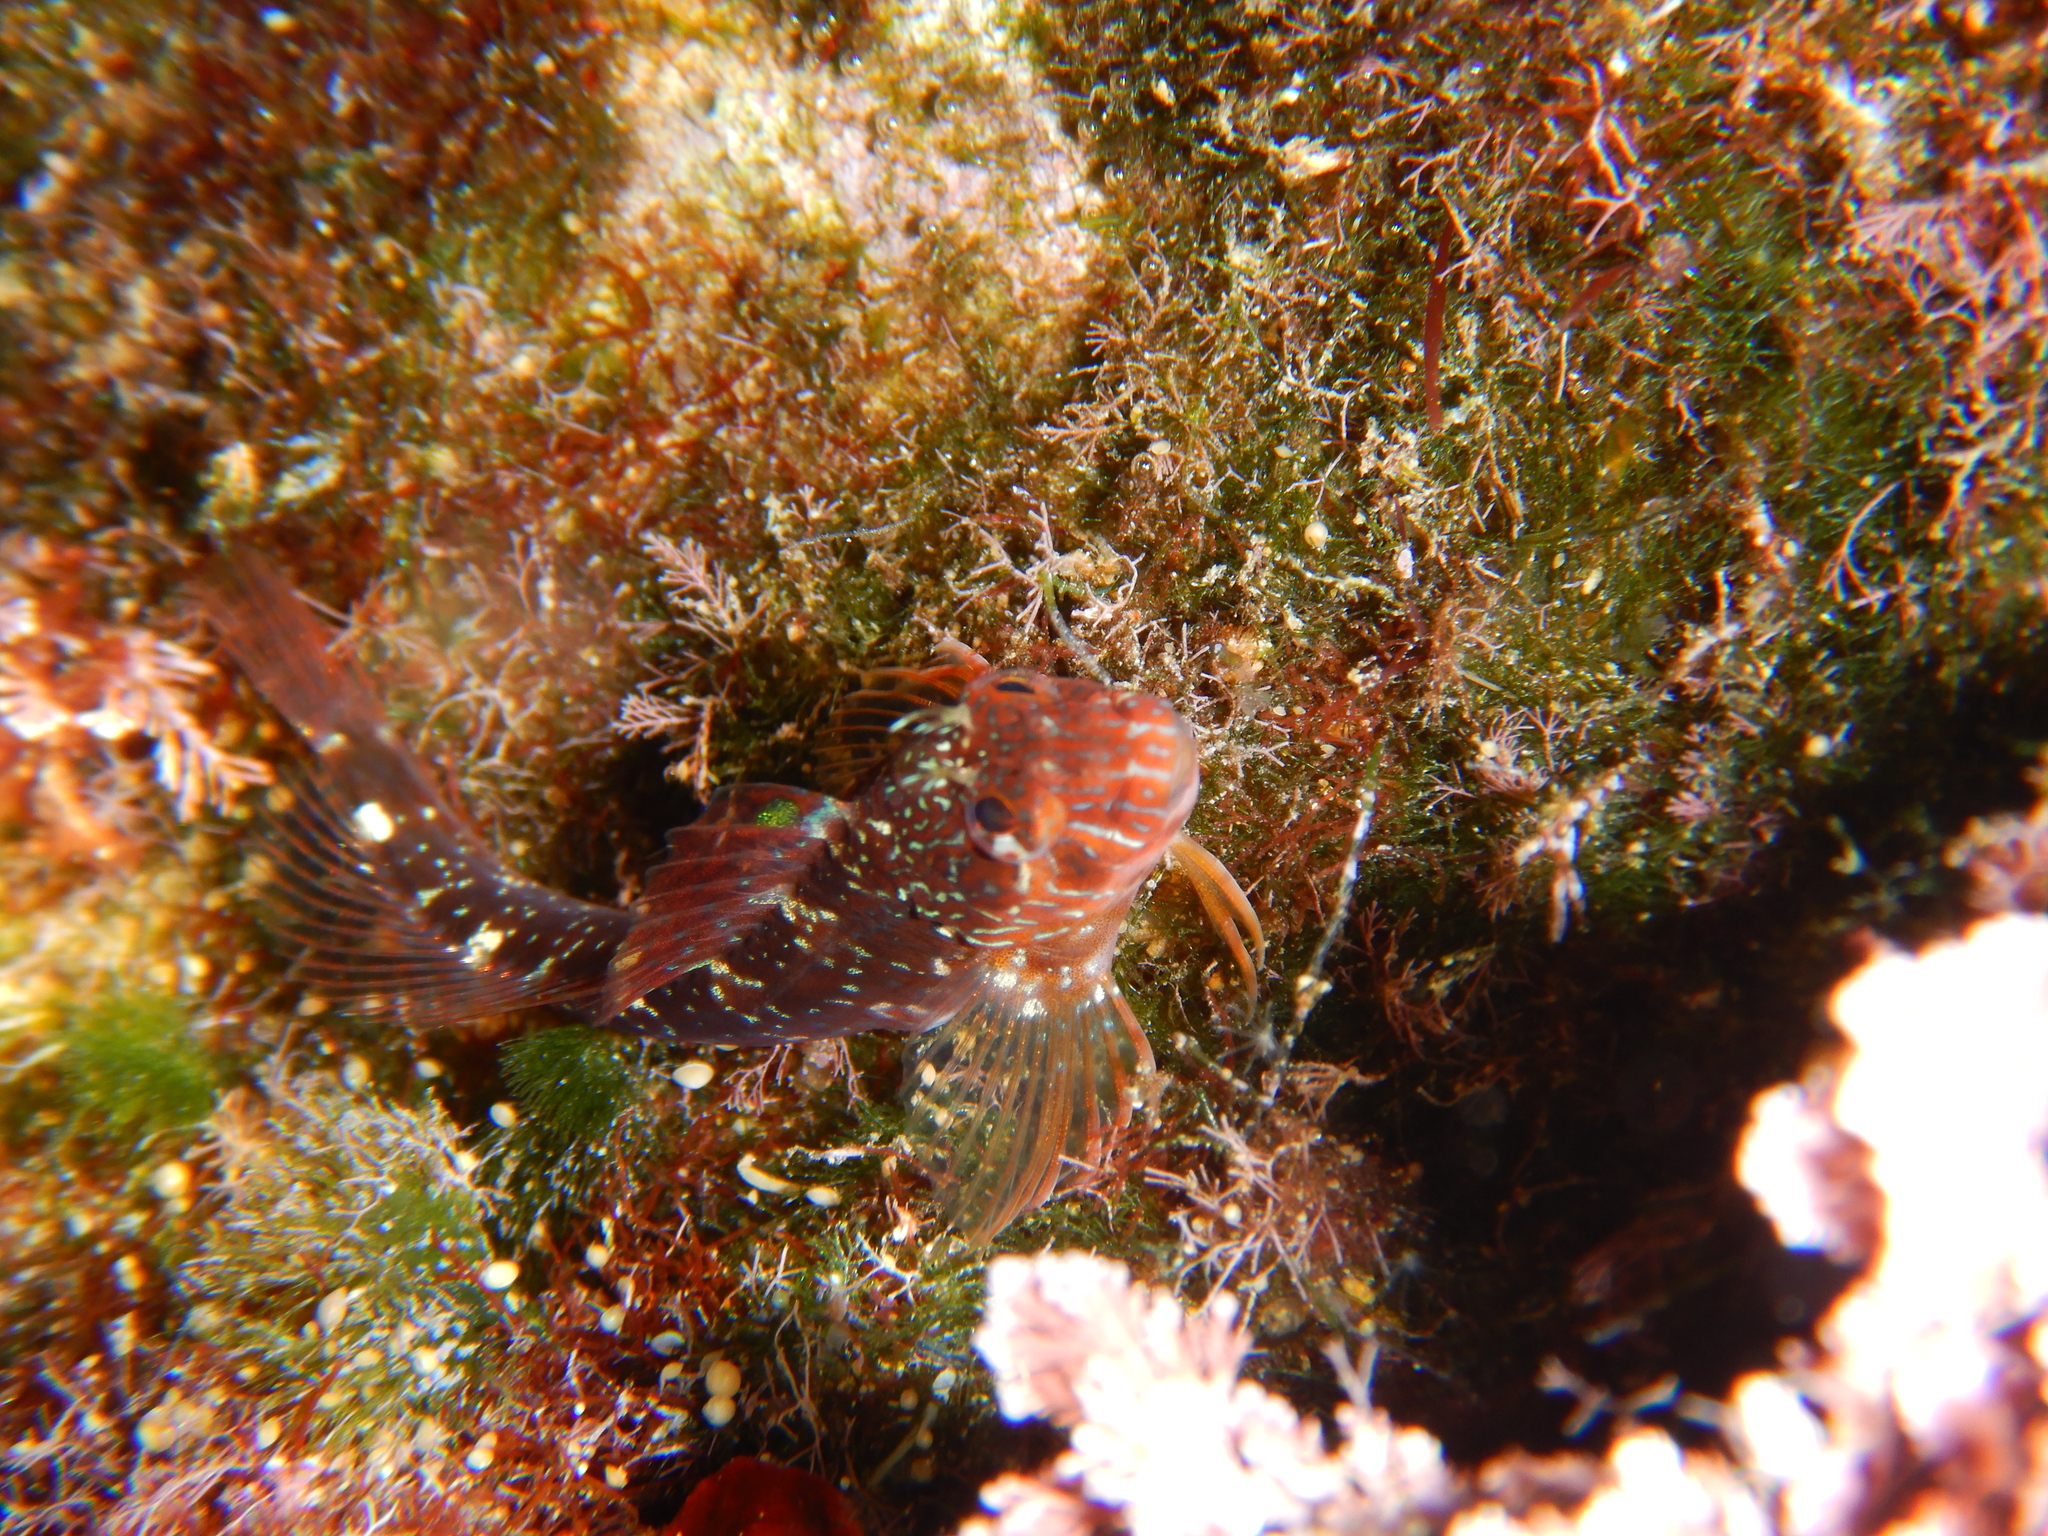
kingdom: Animalia
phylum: Chordata
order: Perciformes
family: Blenniidae
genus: Parablennius
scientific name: Parablennius zvonimiri
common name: Red blenny
